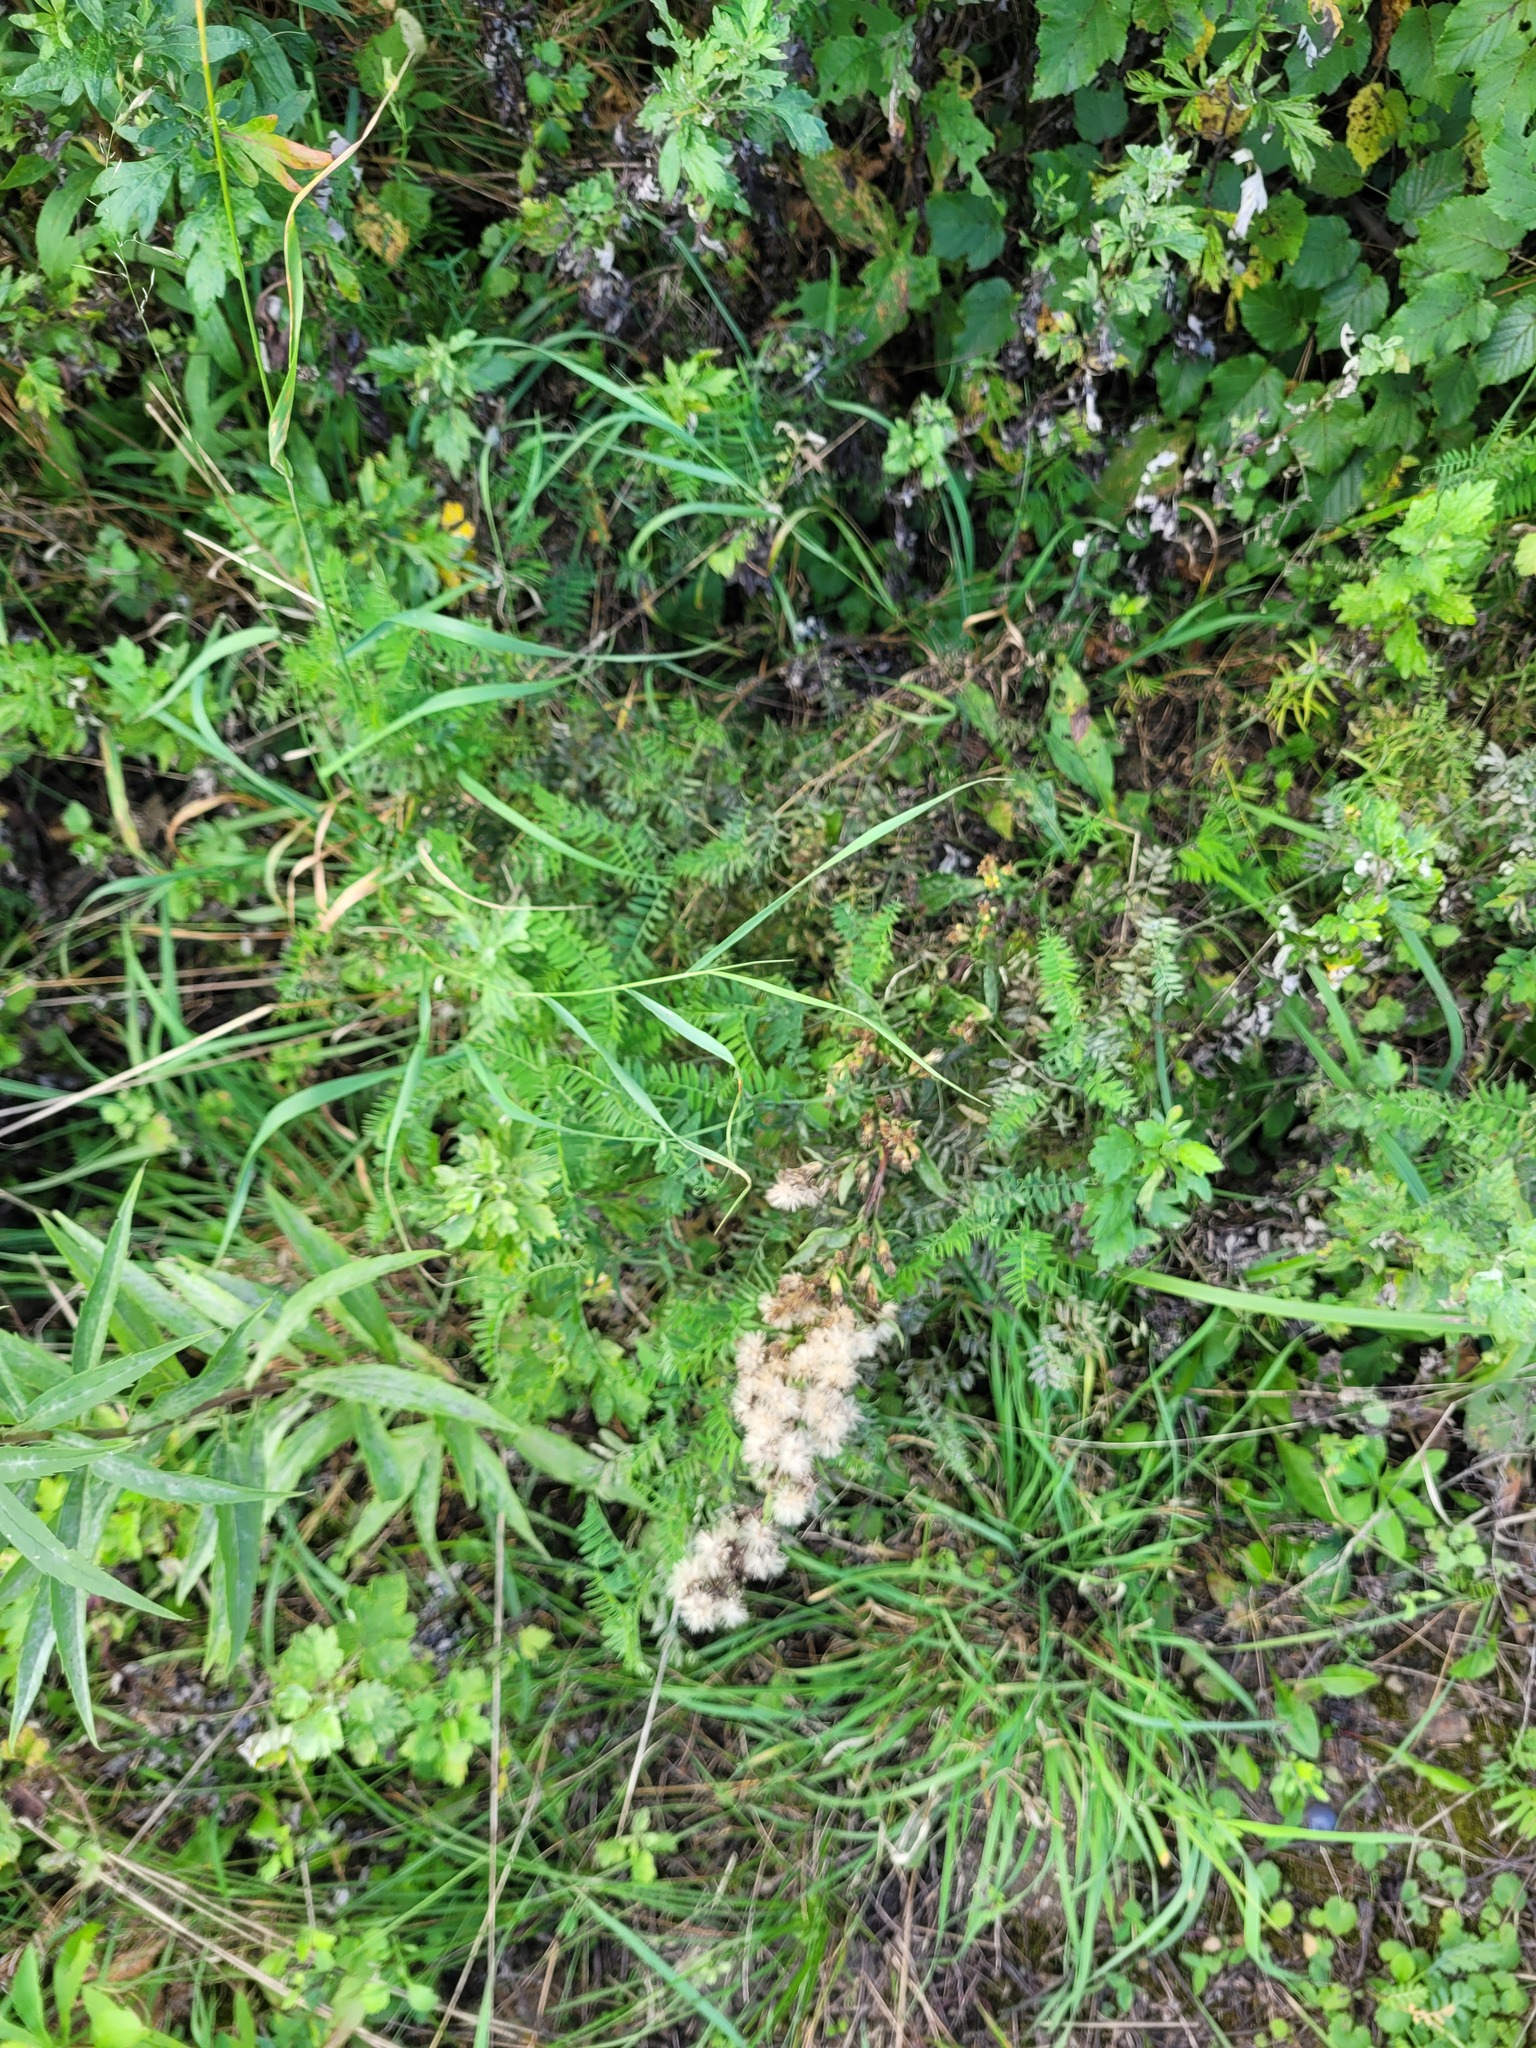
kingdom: Plantae
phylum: Tracheophyta
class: Magnoliopsida
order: Asterales
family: Asteraceae
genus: Solidago
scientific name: Solidago virgaurea
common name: Goldenrod
